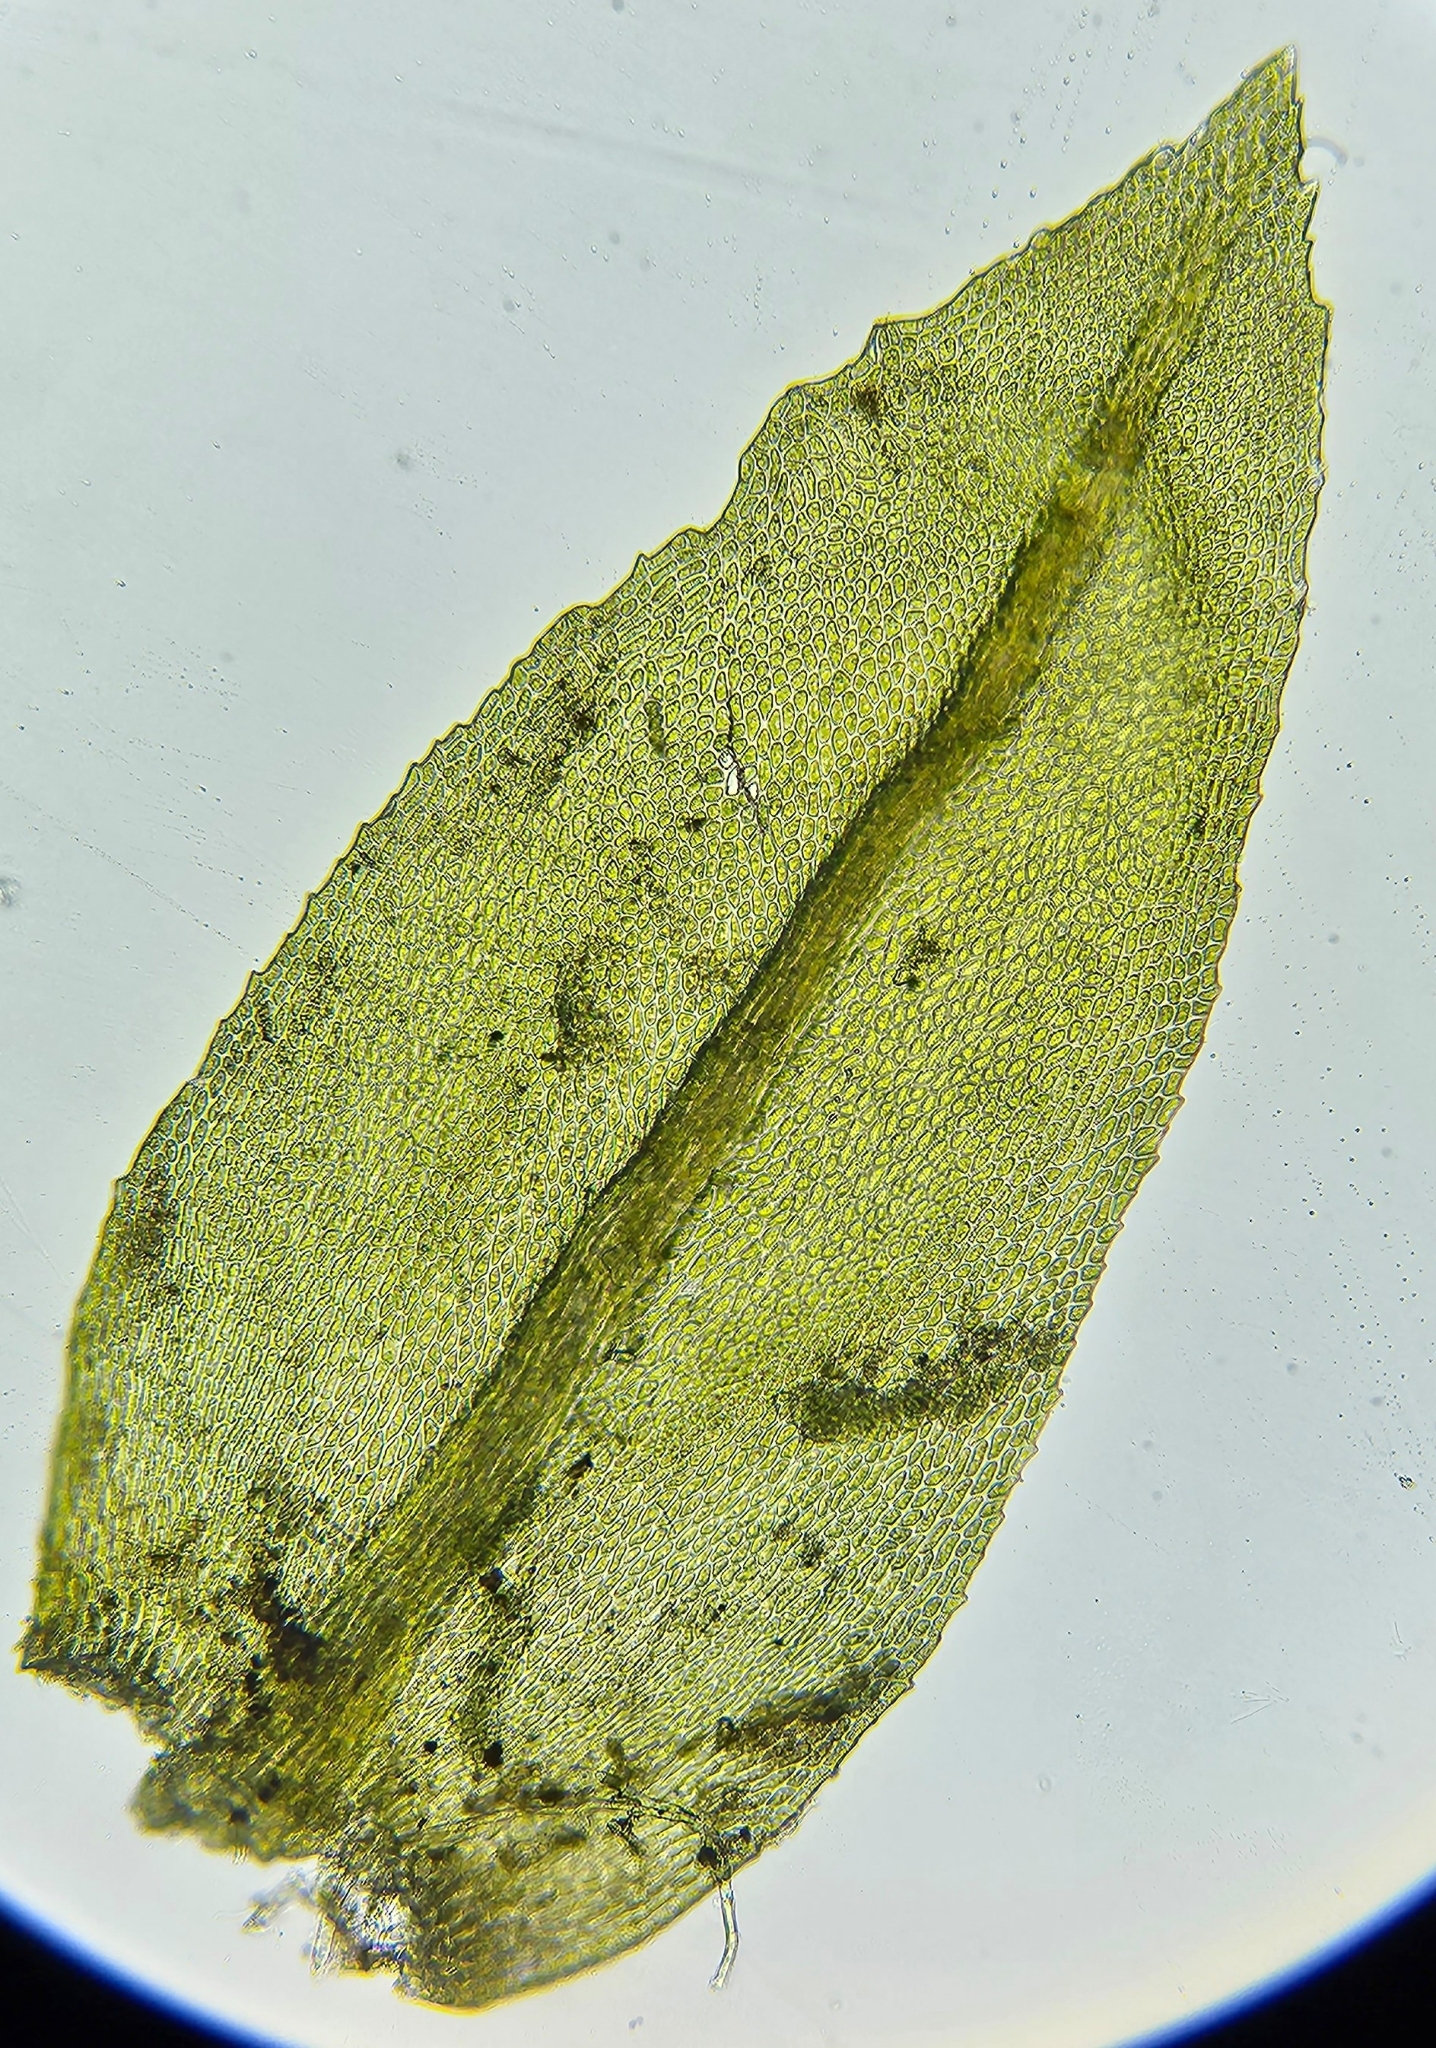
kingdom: Plantae
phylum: Bryophyta
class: Bryopsida
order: Hypnales
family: Neckeraceae
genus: Thamnobryum
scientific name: Thamnobryum alopecurum
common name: Fox-tail feather-moss
